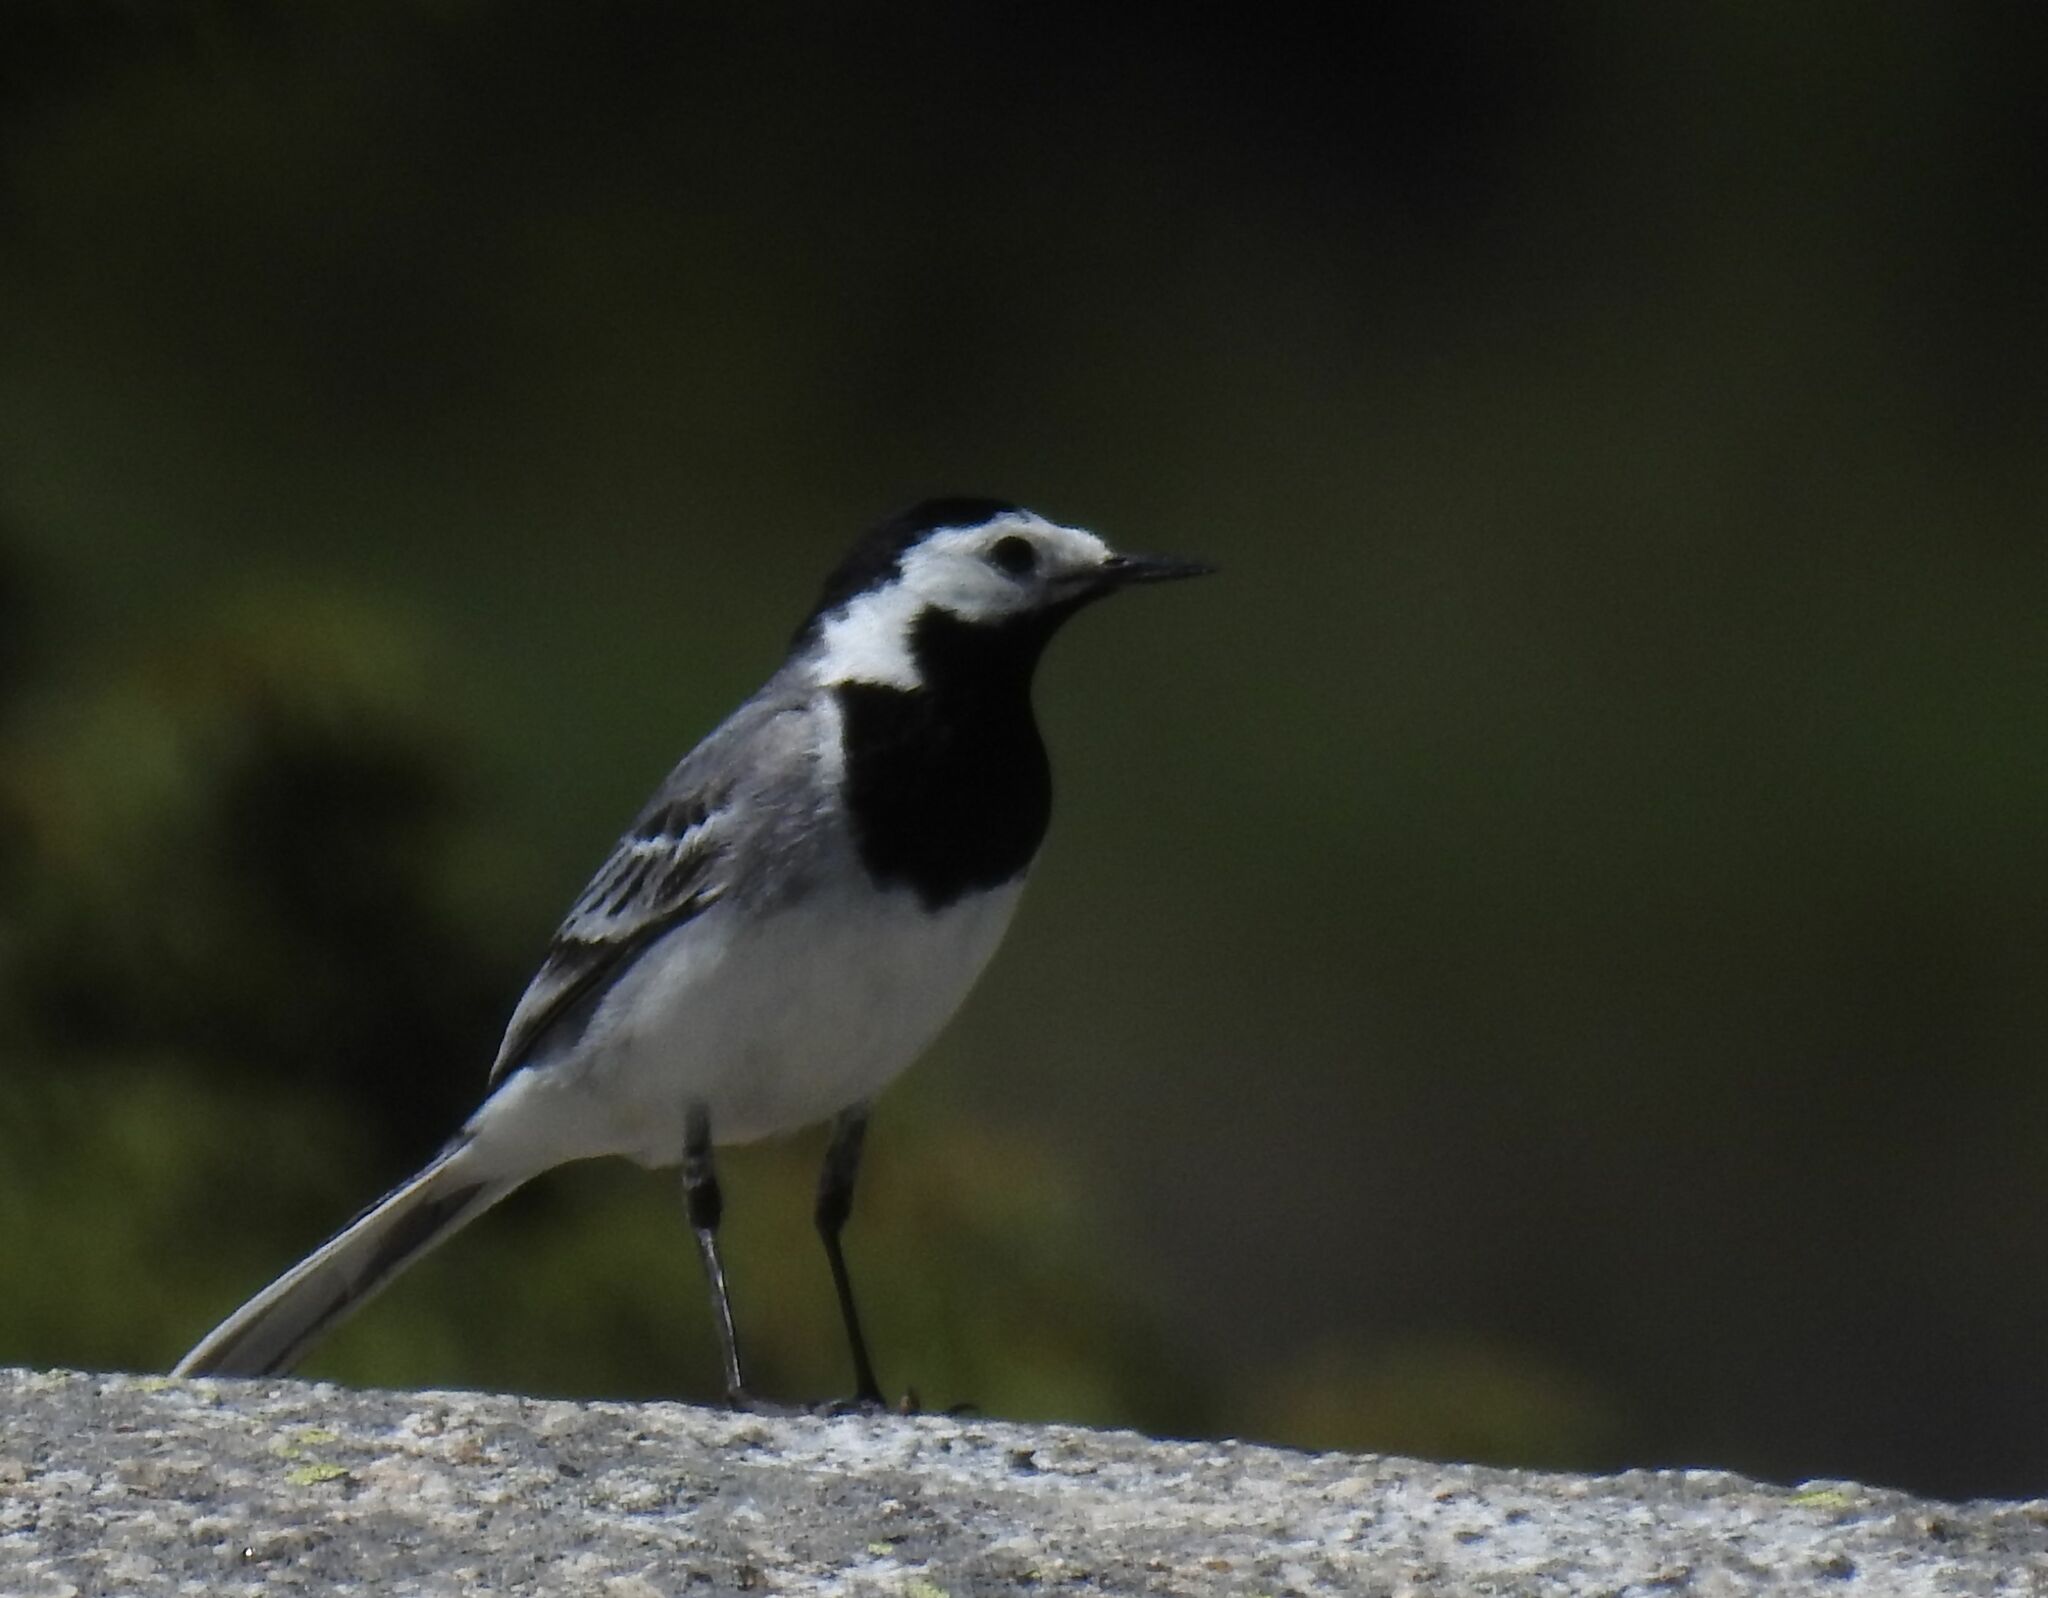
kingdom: Animalia
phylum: Chordata
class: Aves
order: Passeriformes
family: Motacillidae
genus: Motacilla
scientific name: Motacilla alba
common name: White wagtail
